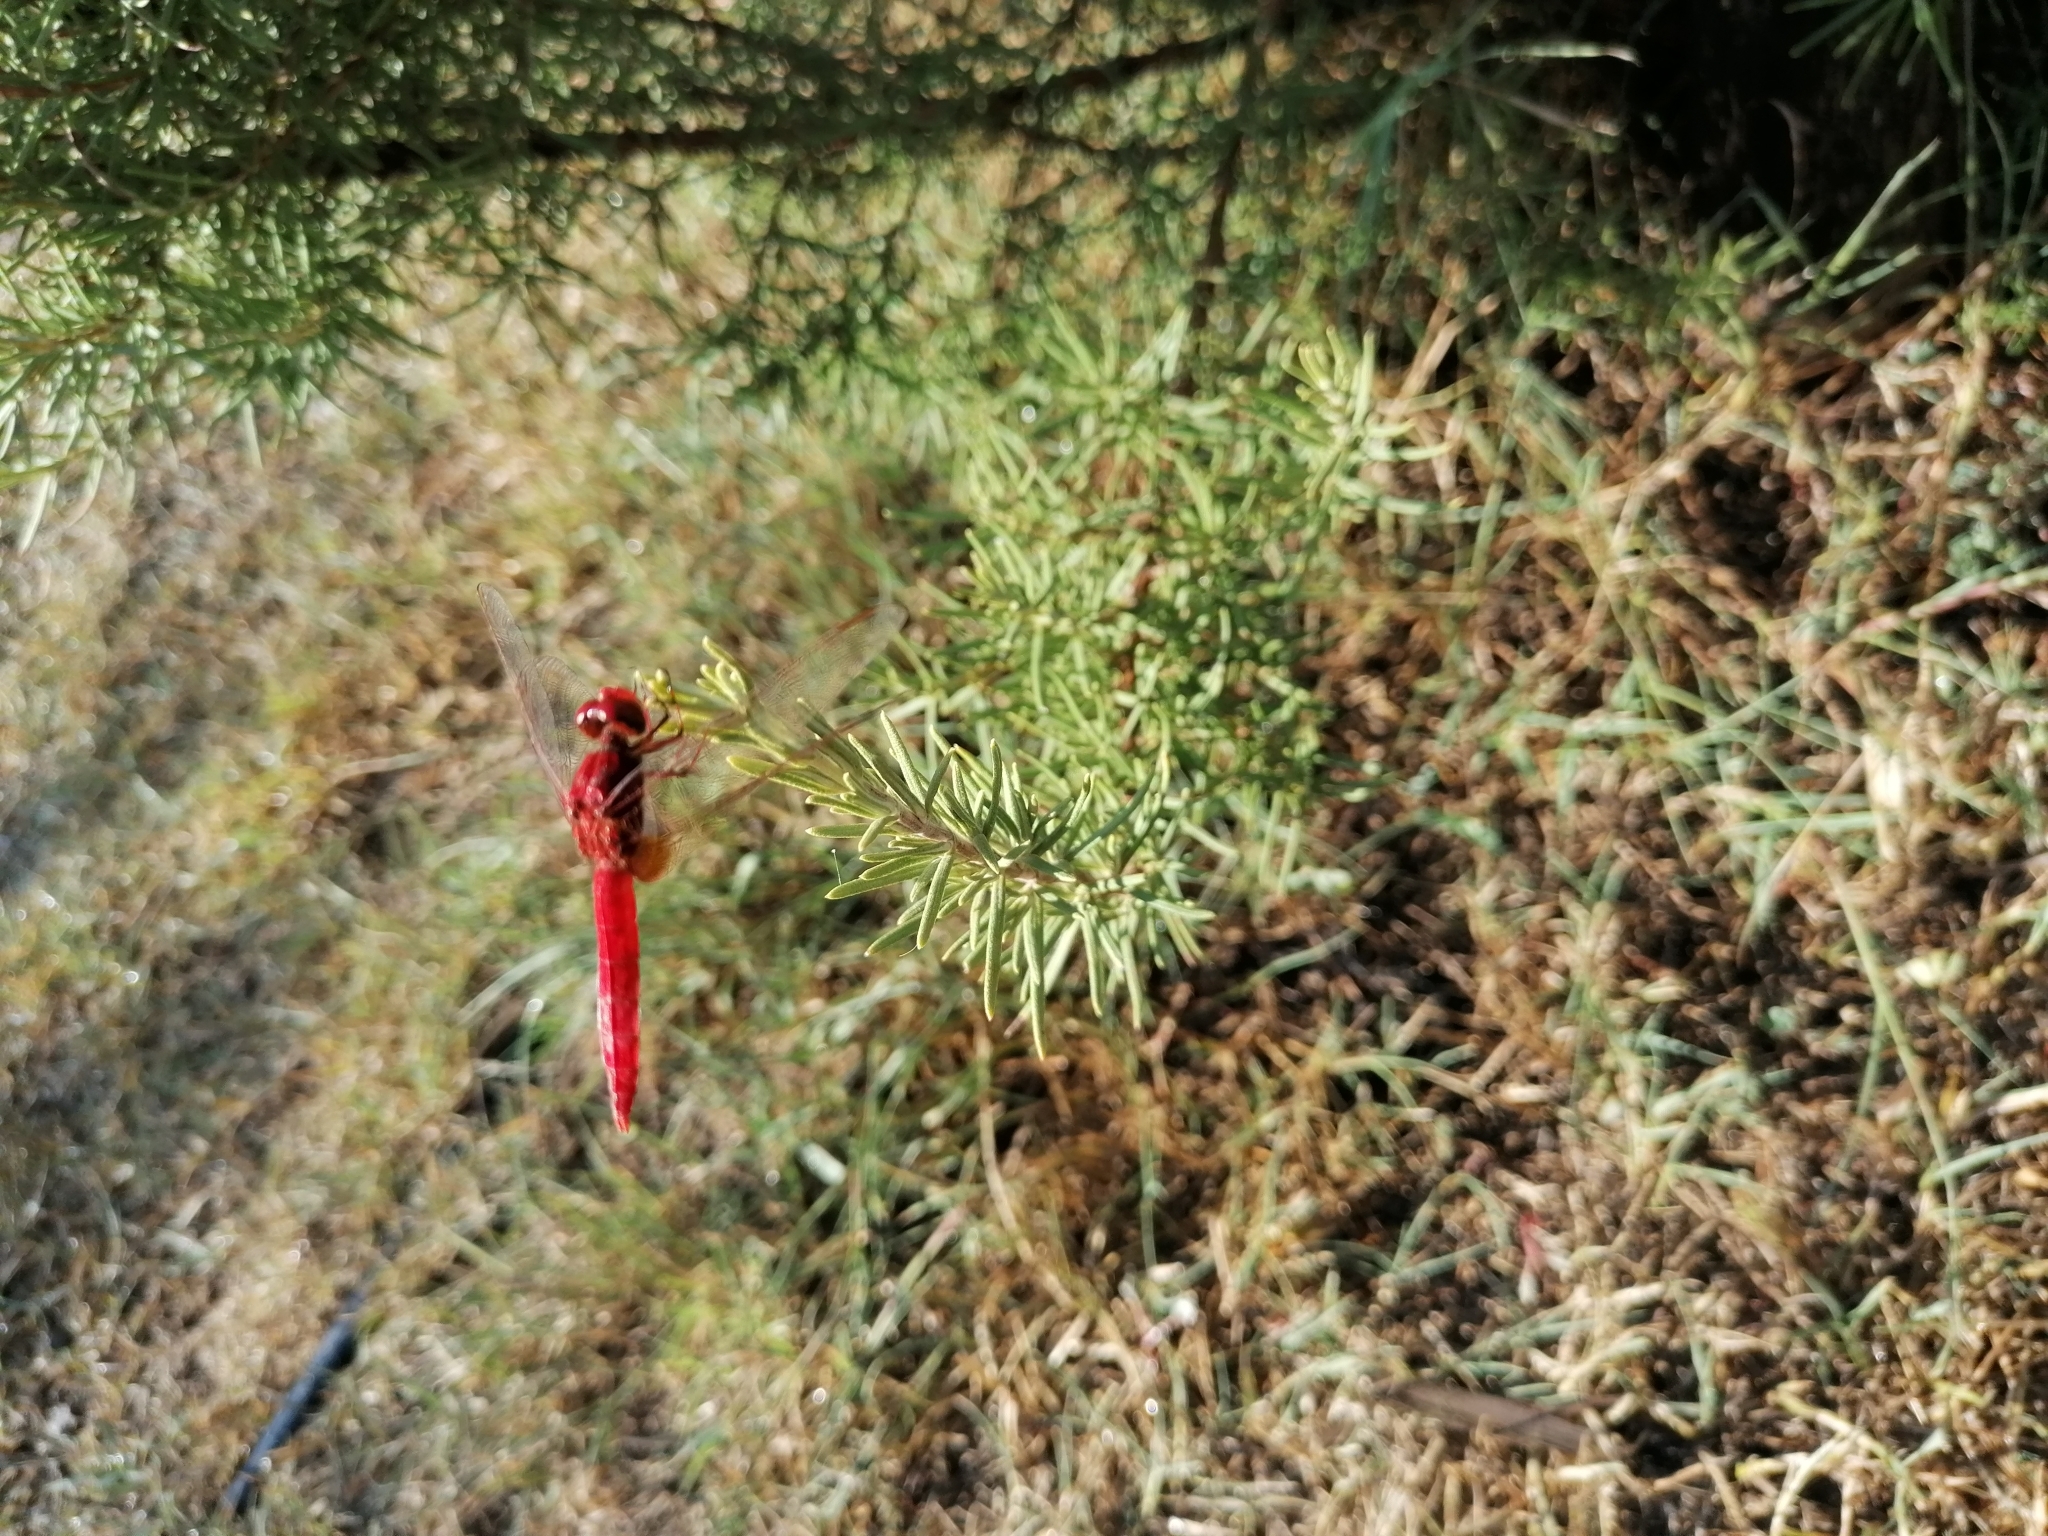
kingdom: Animalia
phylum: Arthropoda
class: Insecta
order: Odonata
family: Libellulidae
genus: Crocothemis
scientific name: Crocothemis erythraea
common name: Scarlet dragonfly
